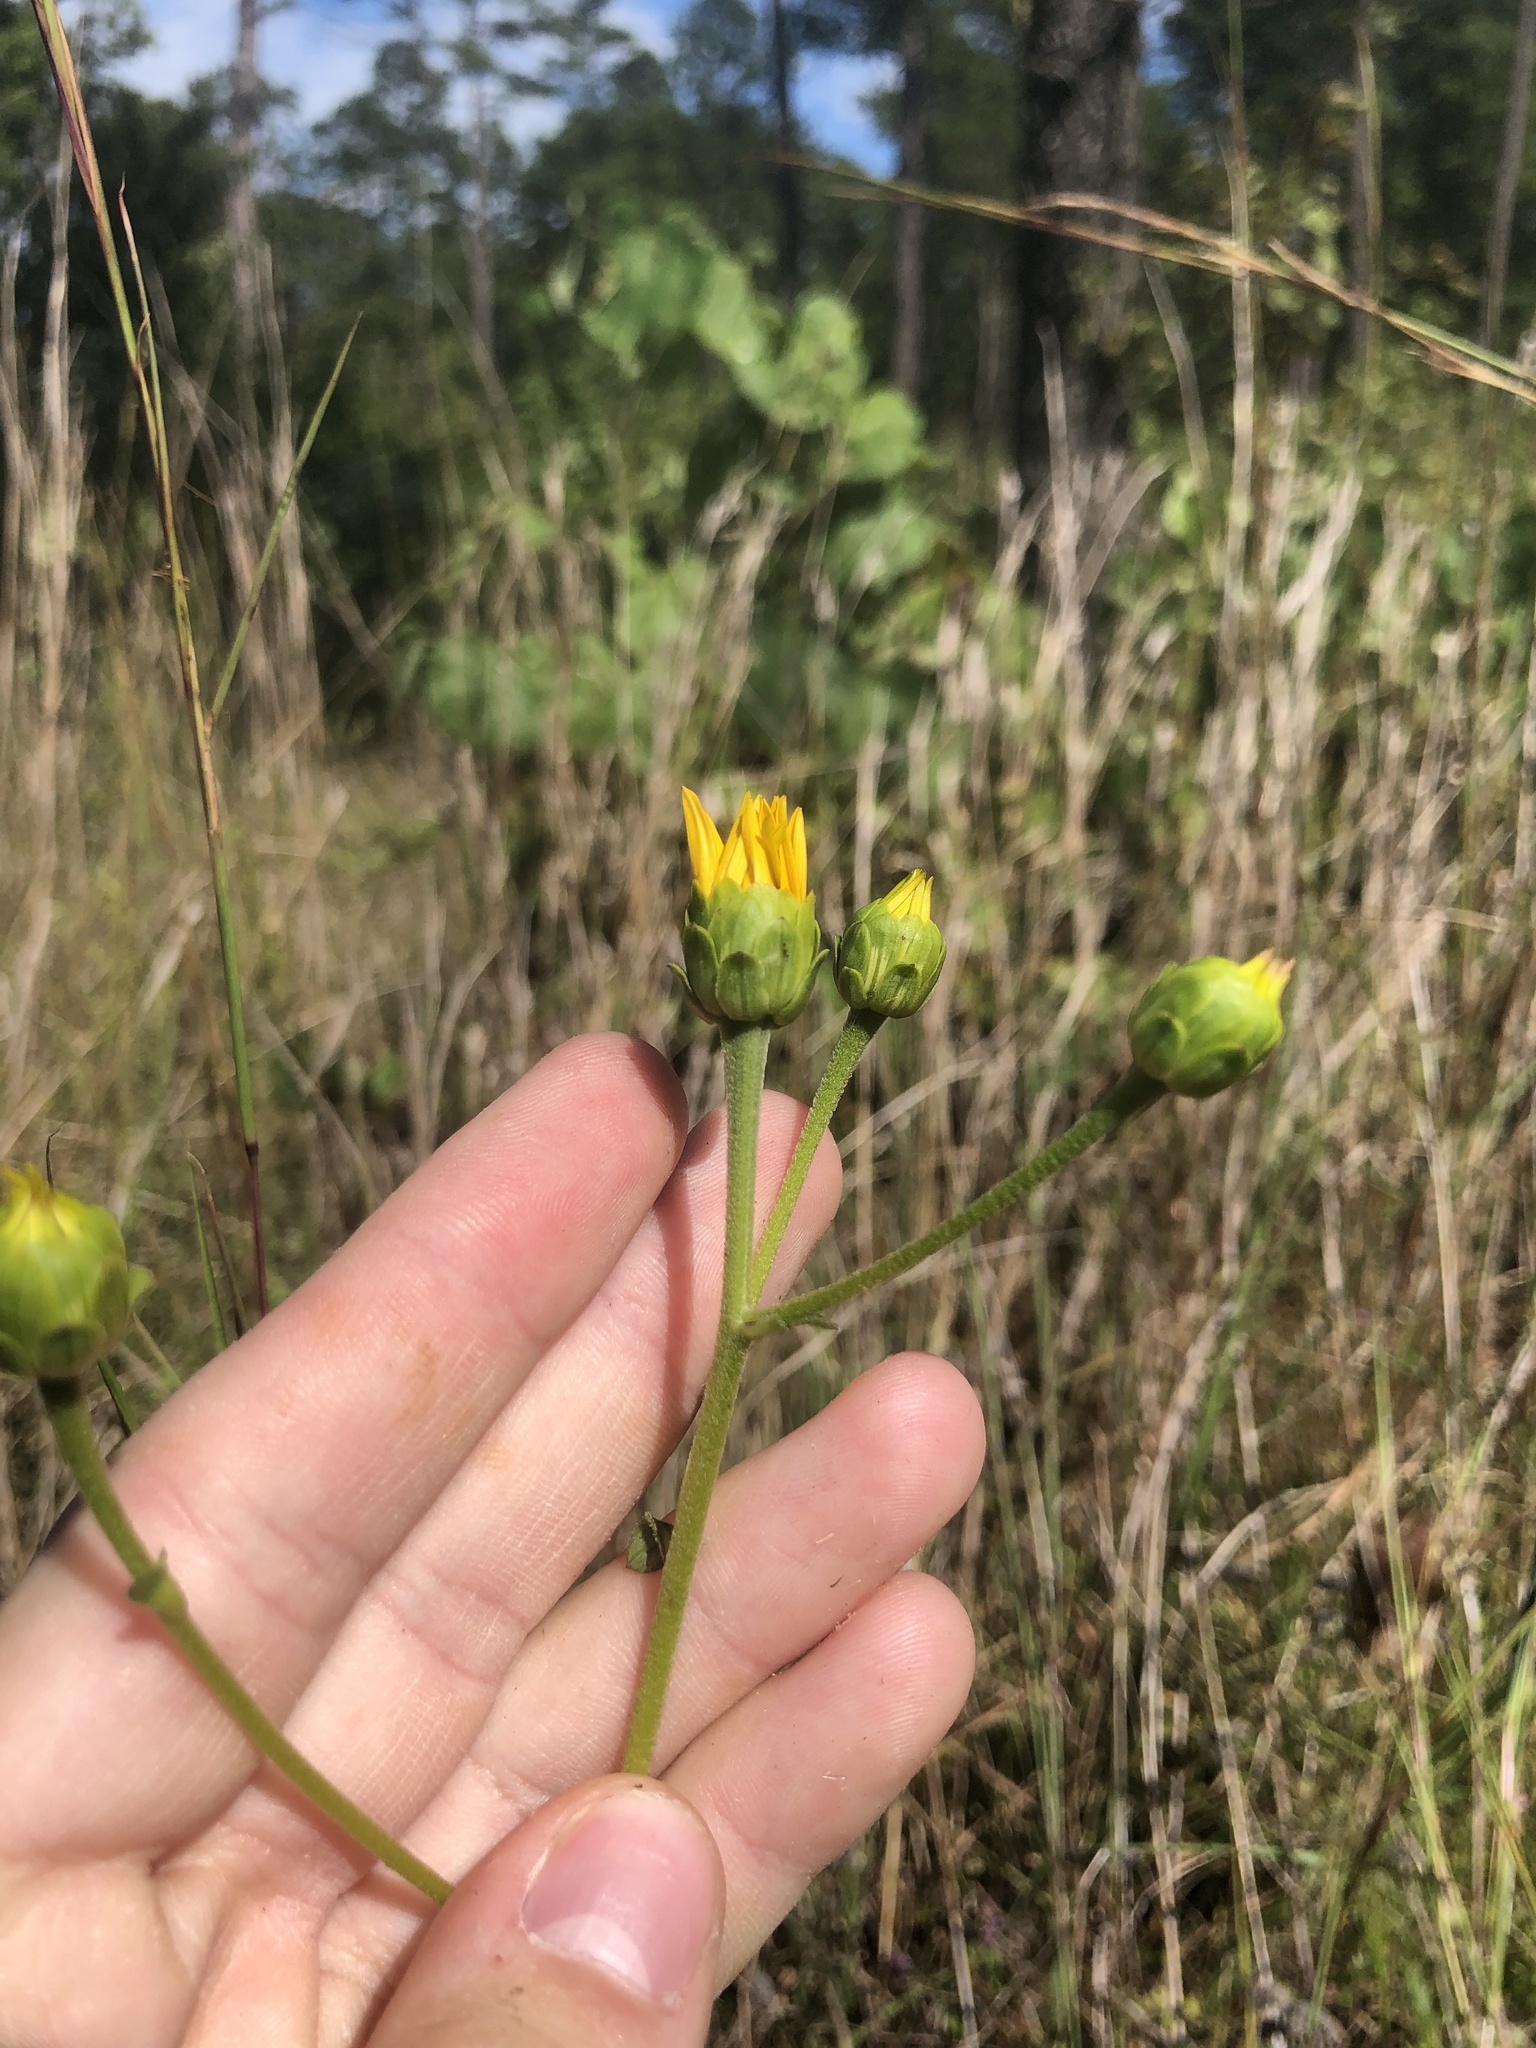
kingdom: Plantae
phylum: Tracheophyta
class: Magnoliopsida
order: Asterales
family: Asteraceae
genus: Helianthus
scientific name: Helianthus atrorubens
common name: Dark-eyed sunflower
